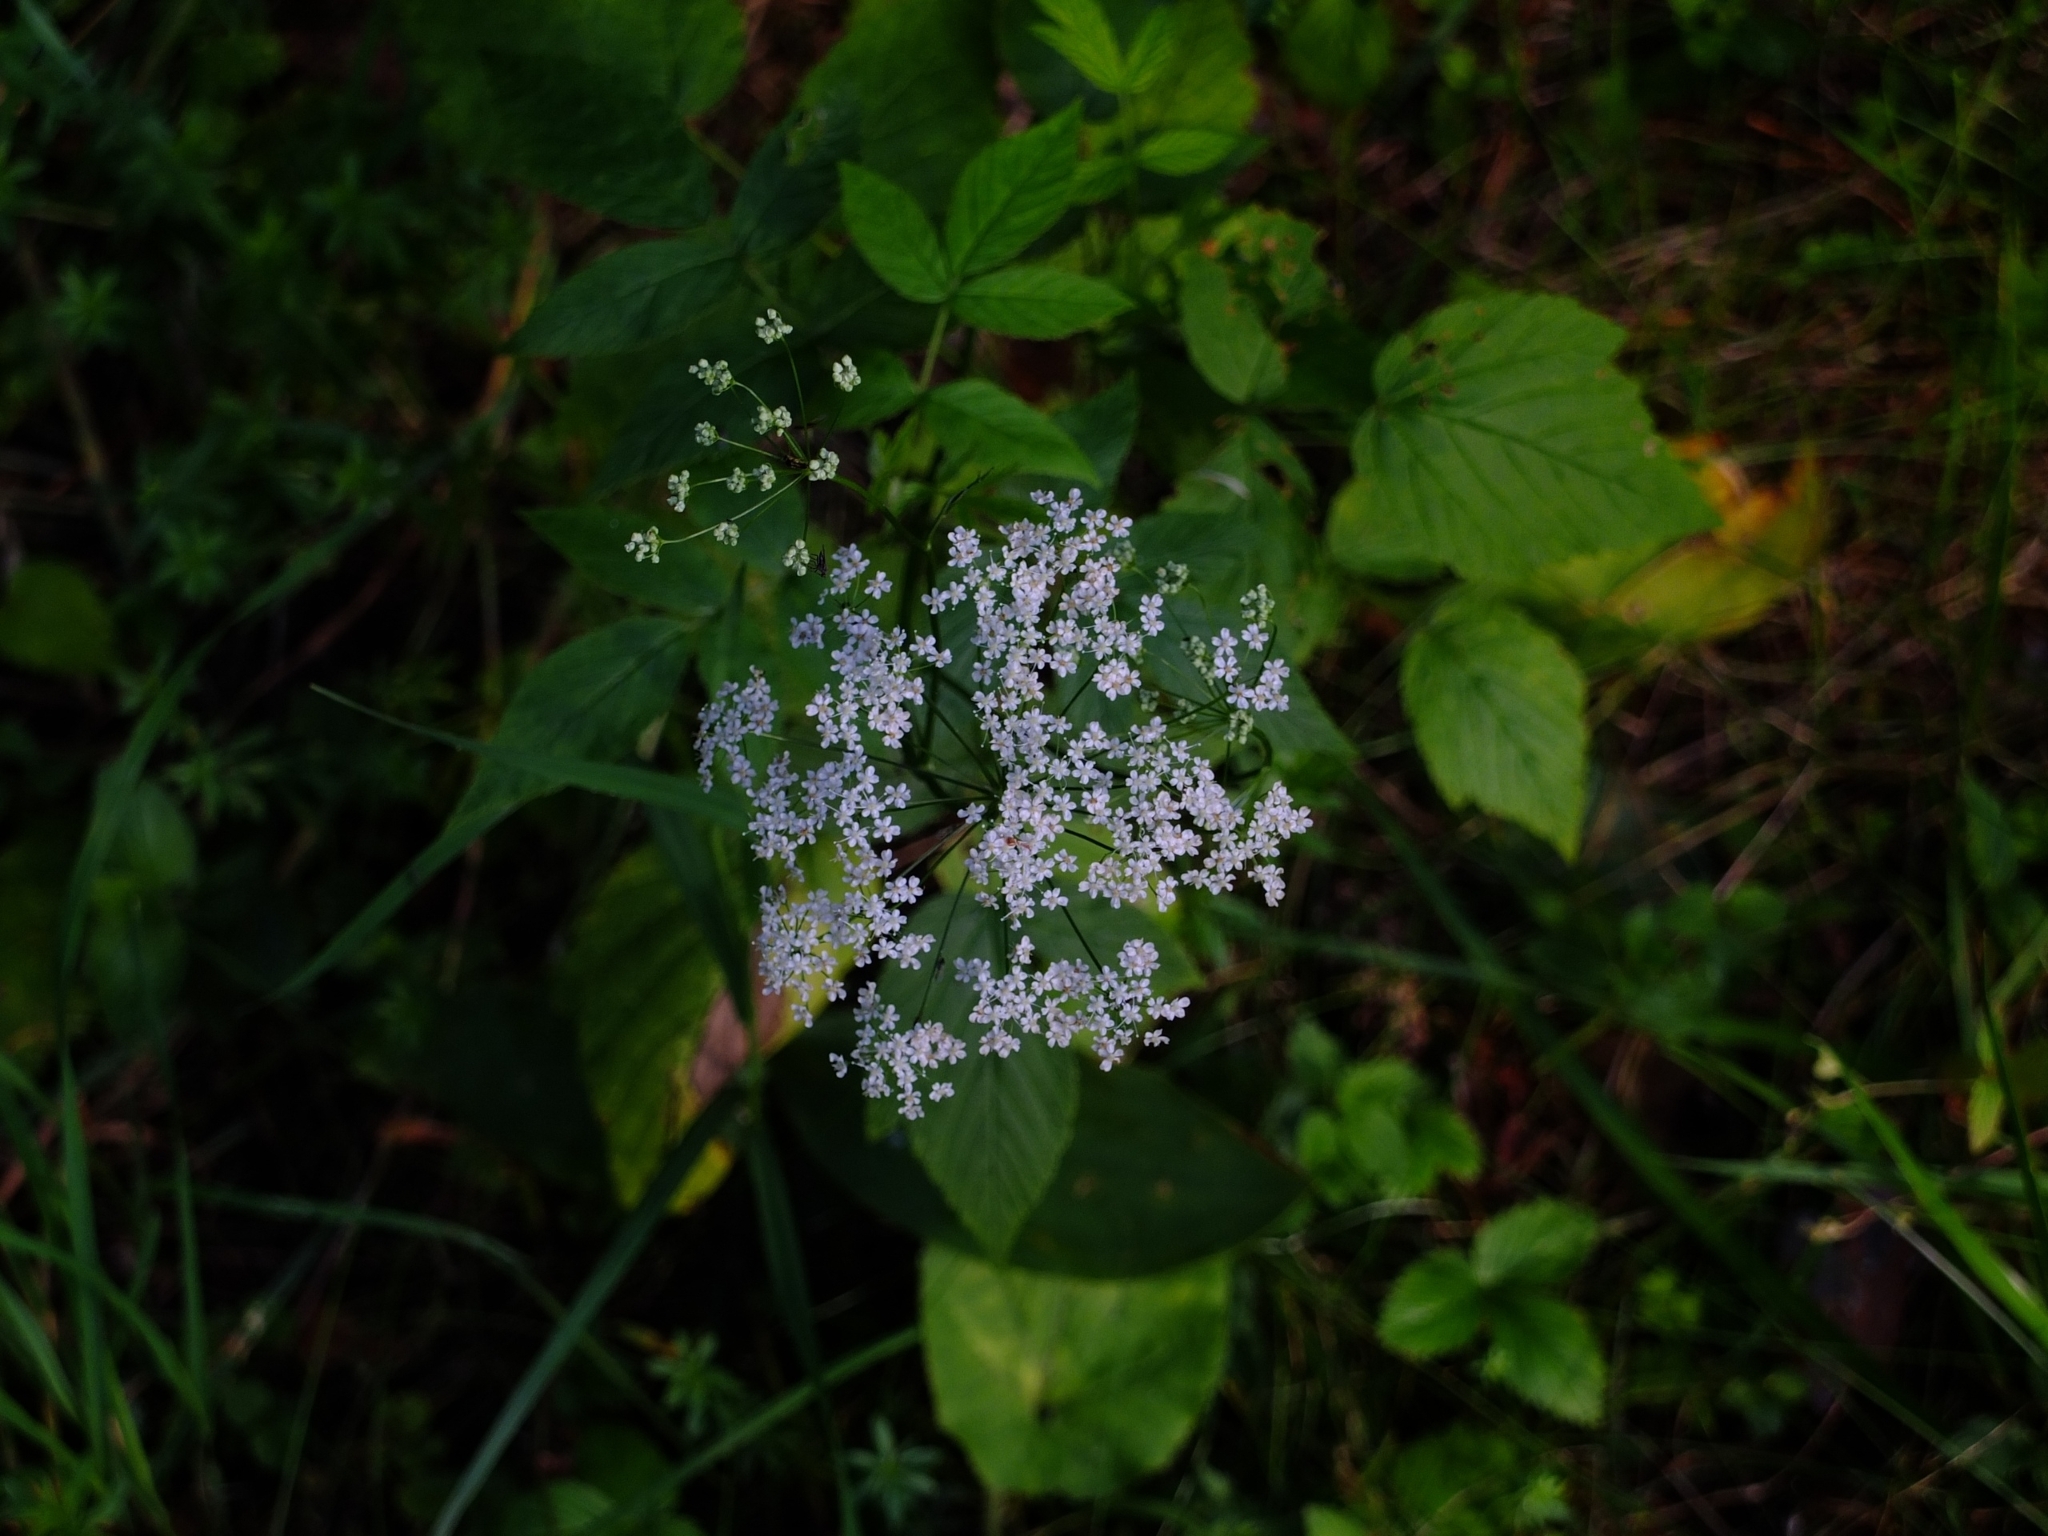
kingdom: Plantae
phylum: Tracheophyta
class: Magnoliopsida
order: Apiales
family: Apiaceae
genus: Aegopodium
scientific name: Aegopodium podagraria
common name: Ground-elder
